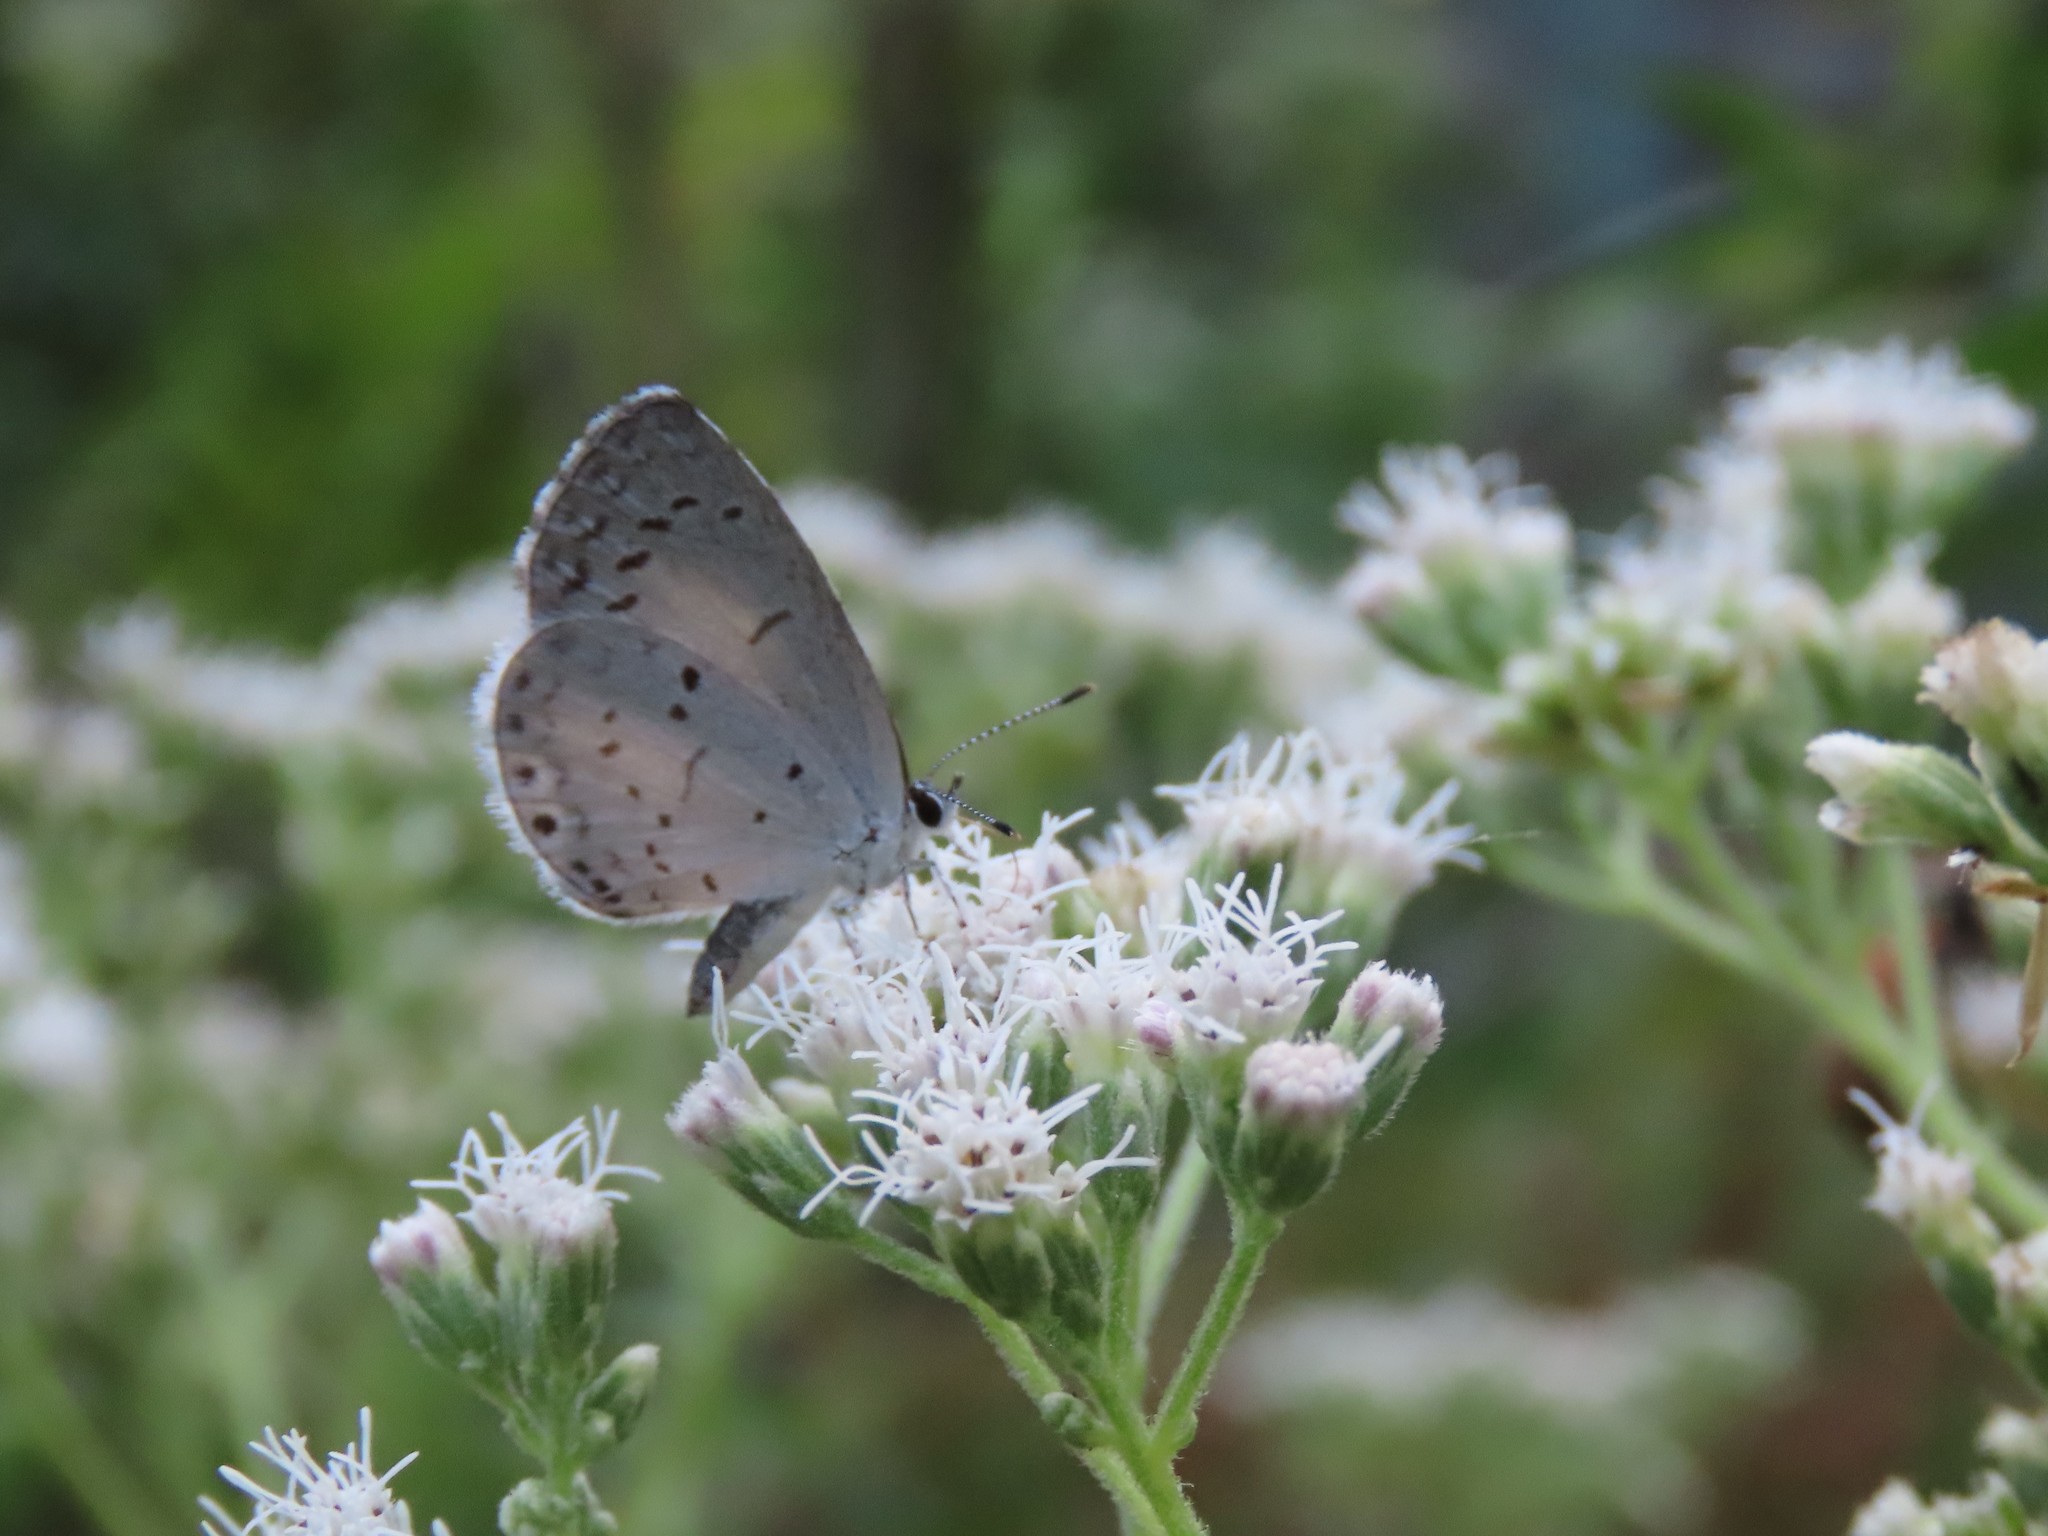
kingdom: Animalia
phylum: Arthropoda
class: Insecta
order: Lepidoptera
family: Lycaenidae
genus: Cyaniris
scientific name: Cyaniris neglecta
